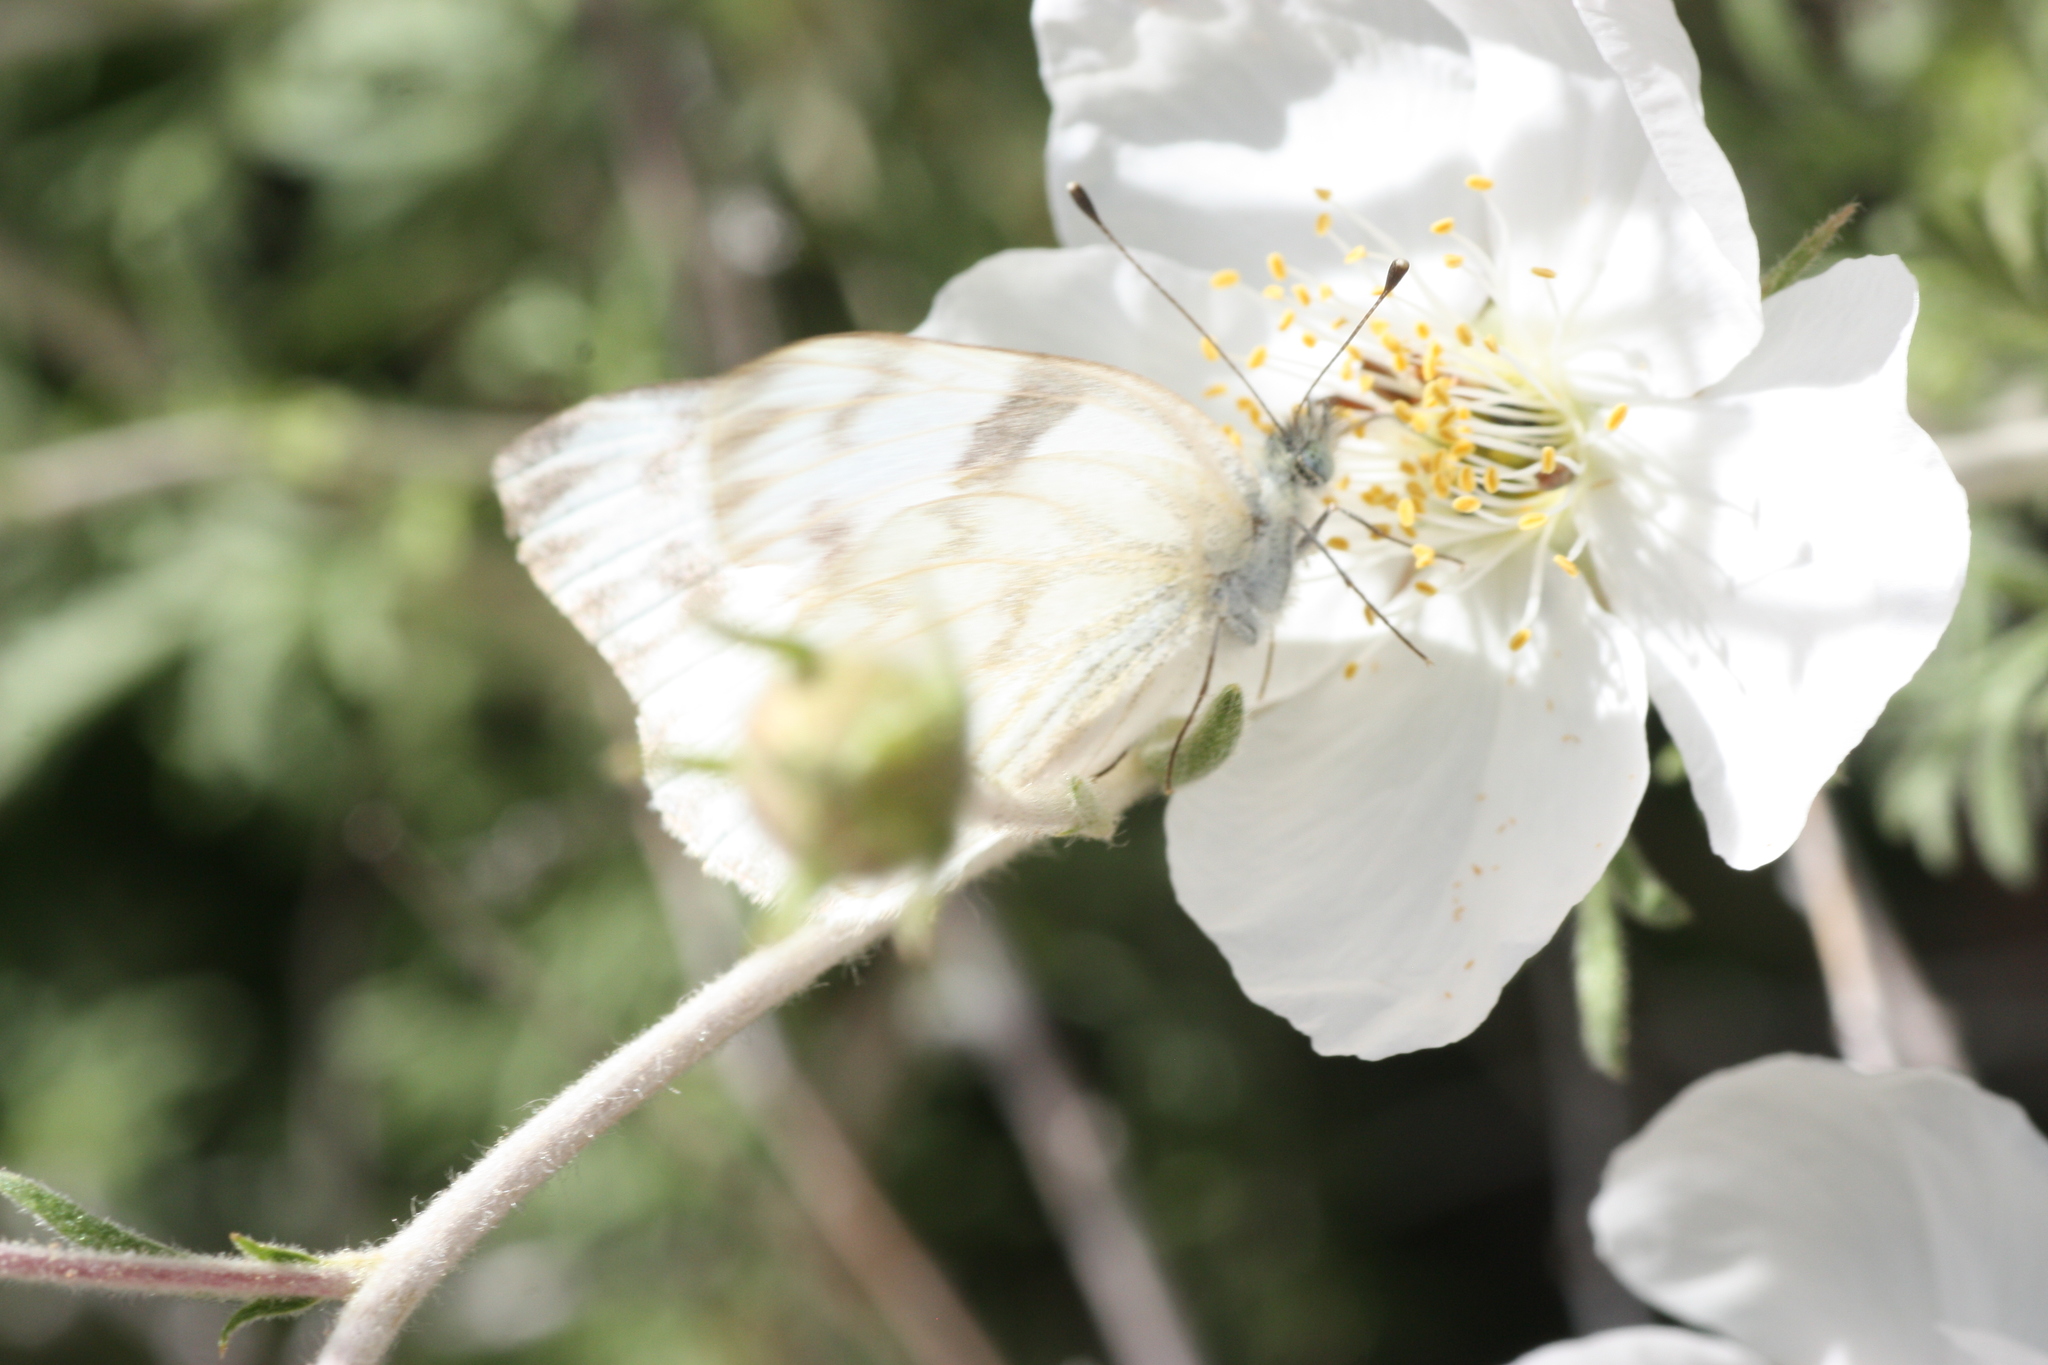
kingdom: Animalia
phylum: Arthropoda
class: Insecta
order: Lepidoptera
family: Pieridae
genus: Pontia
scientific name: Pontia protodice
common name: Checkered white
